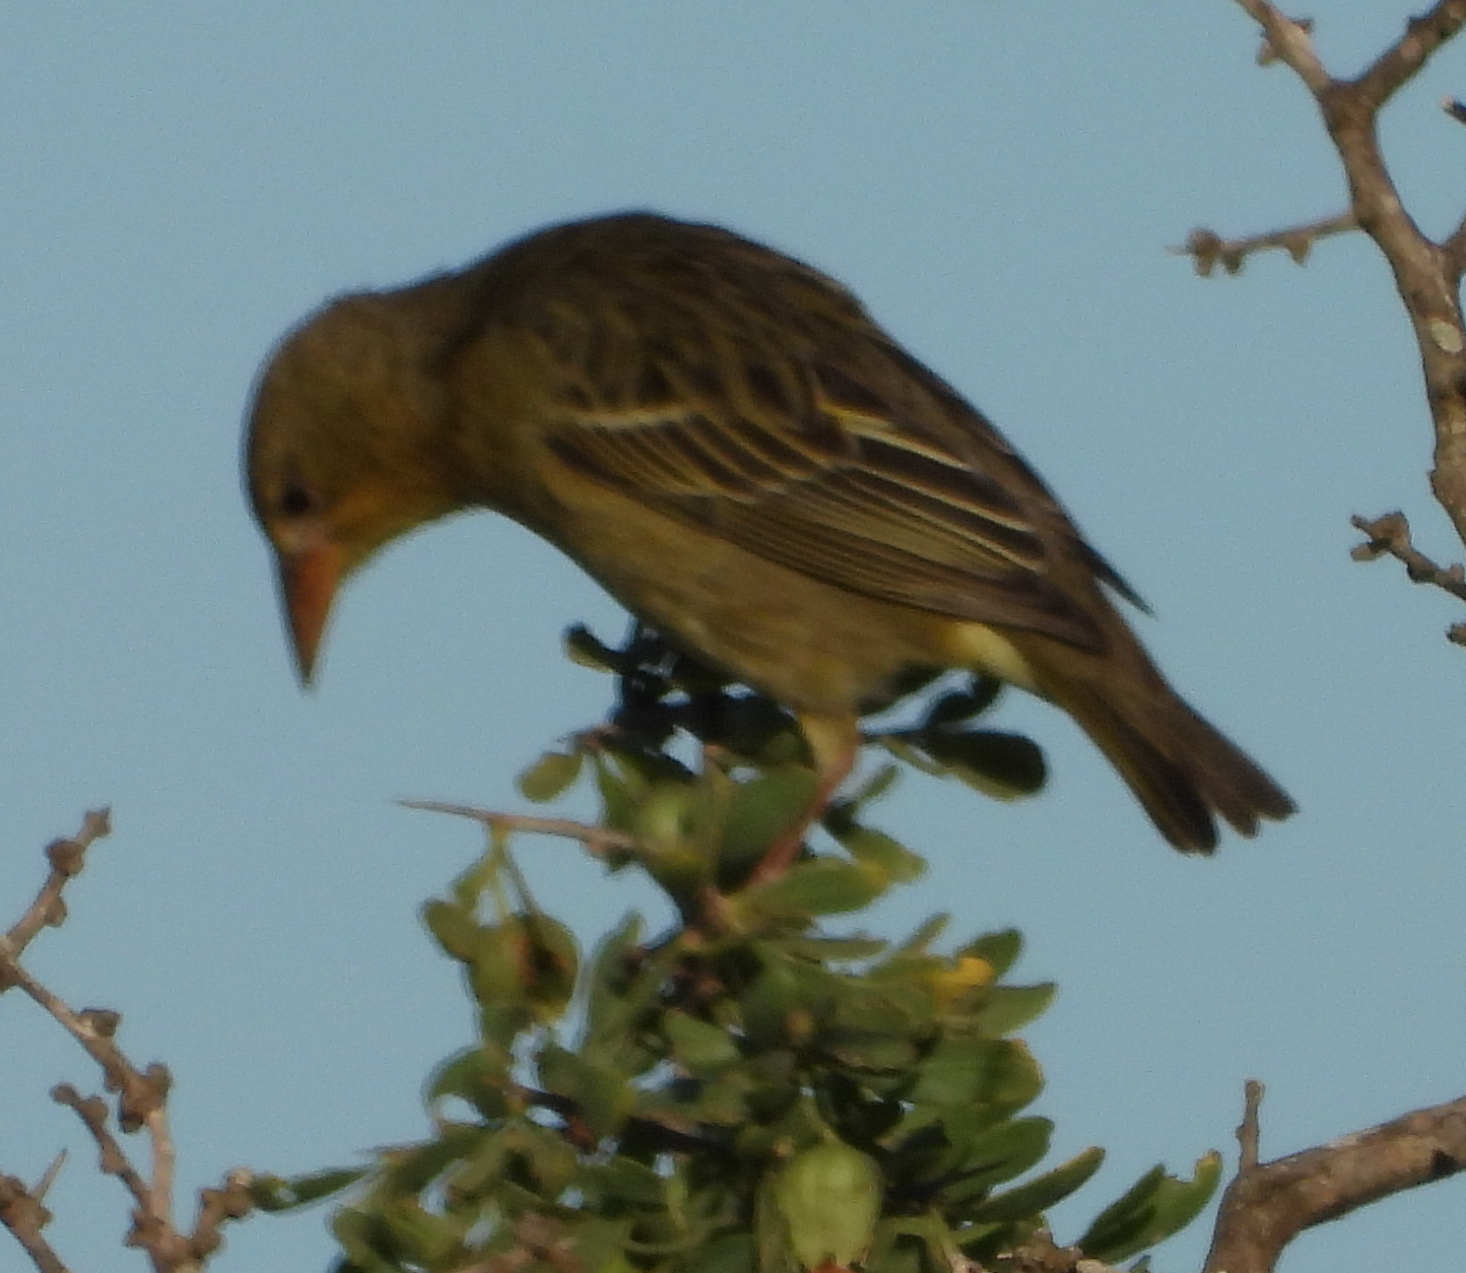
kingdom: Animalia
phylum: Chordata
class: Aves
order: Passeriformes
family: Ploceidae
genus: Ploceus
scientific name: Ploceus capensis
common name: Cape weaver
